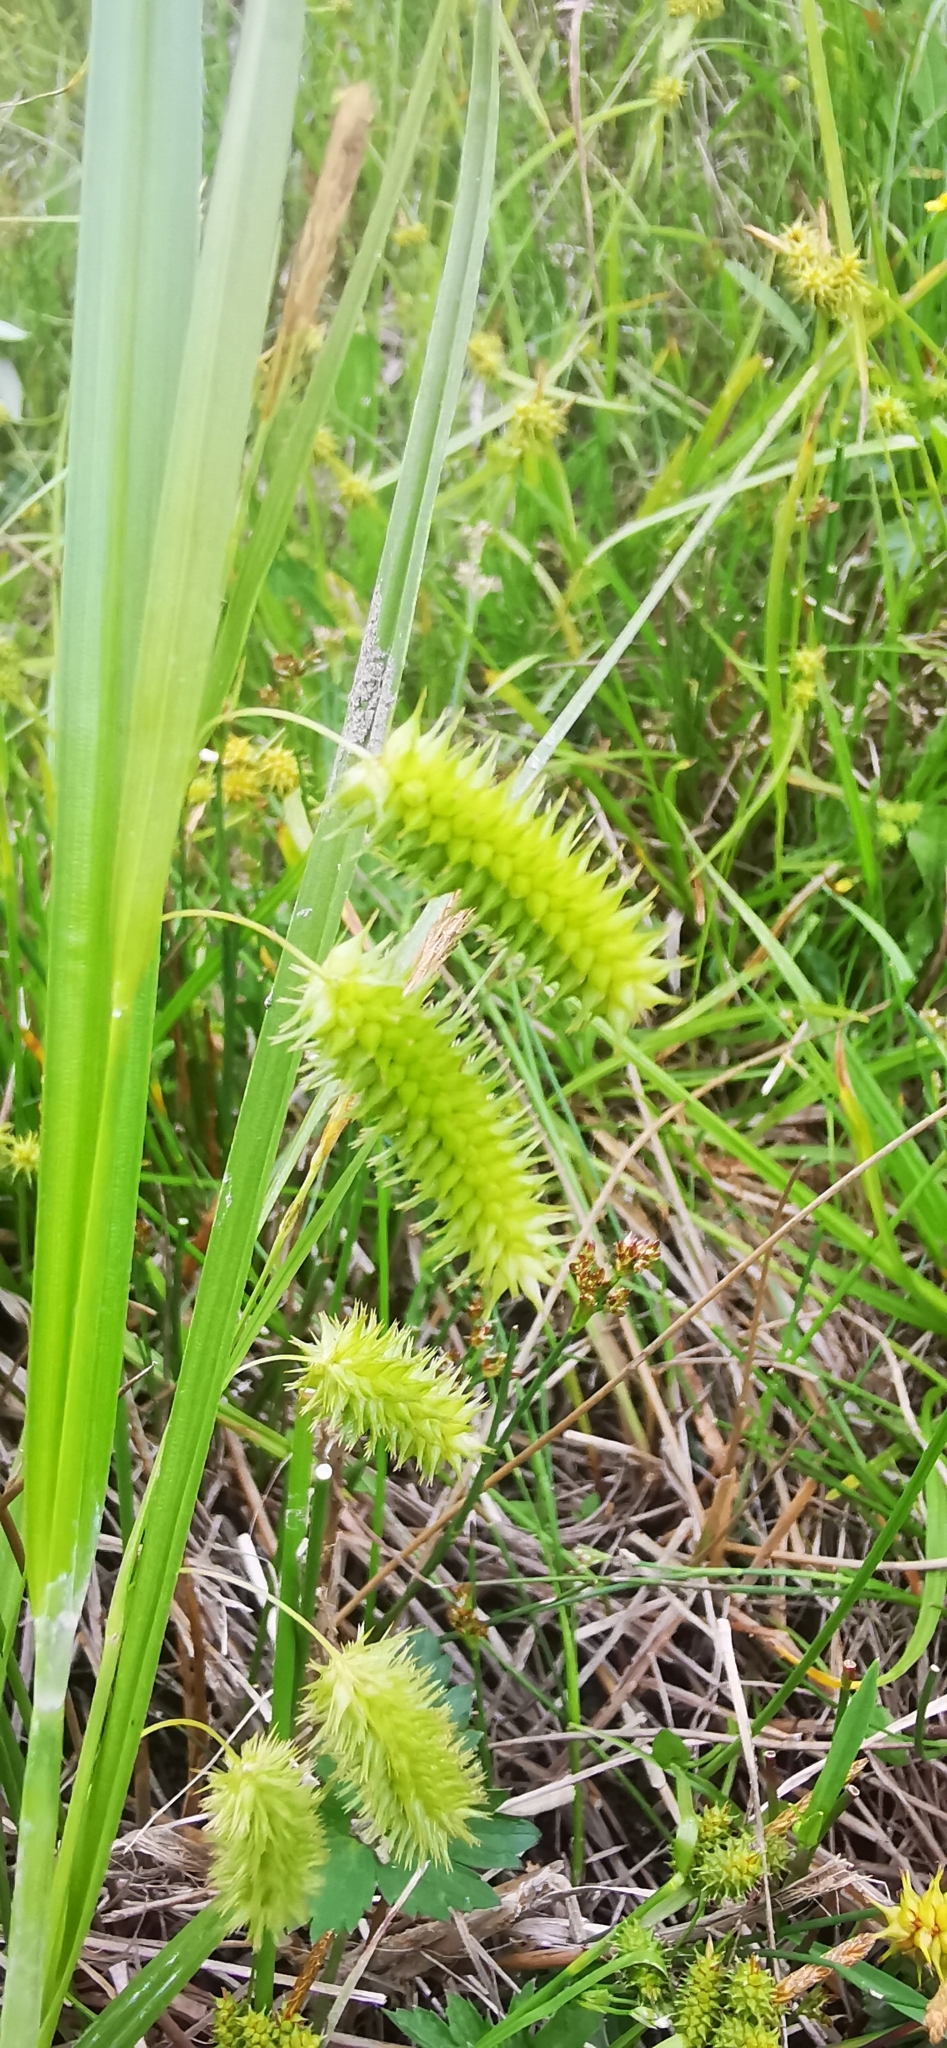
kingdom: Plantae
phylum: Tracheophyta
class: Liliopsida
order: Poales
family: Cyperaceae
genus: Carex
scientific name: Carex pseudocyperus
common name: Cyperus sedge
